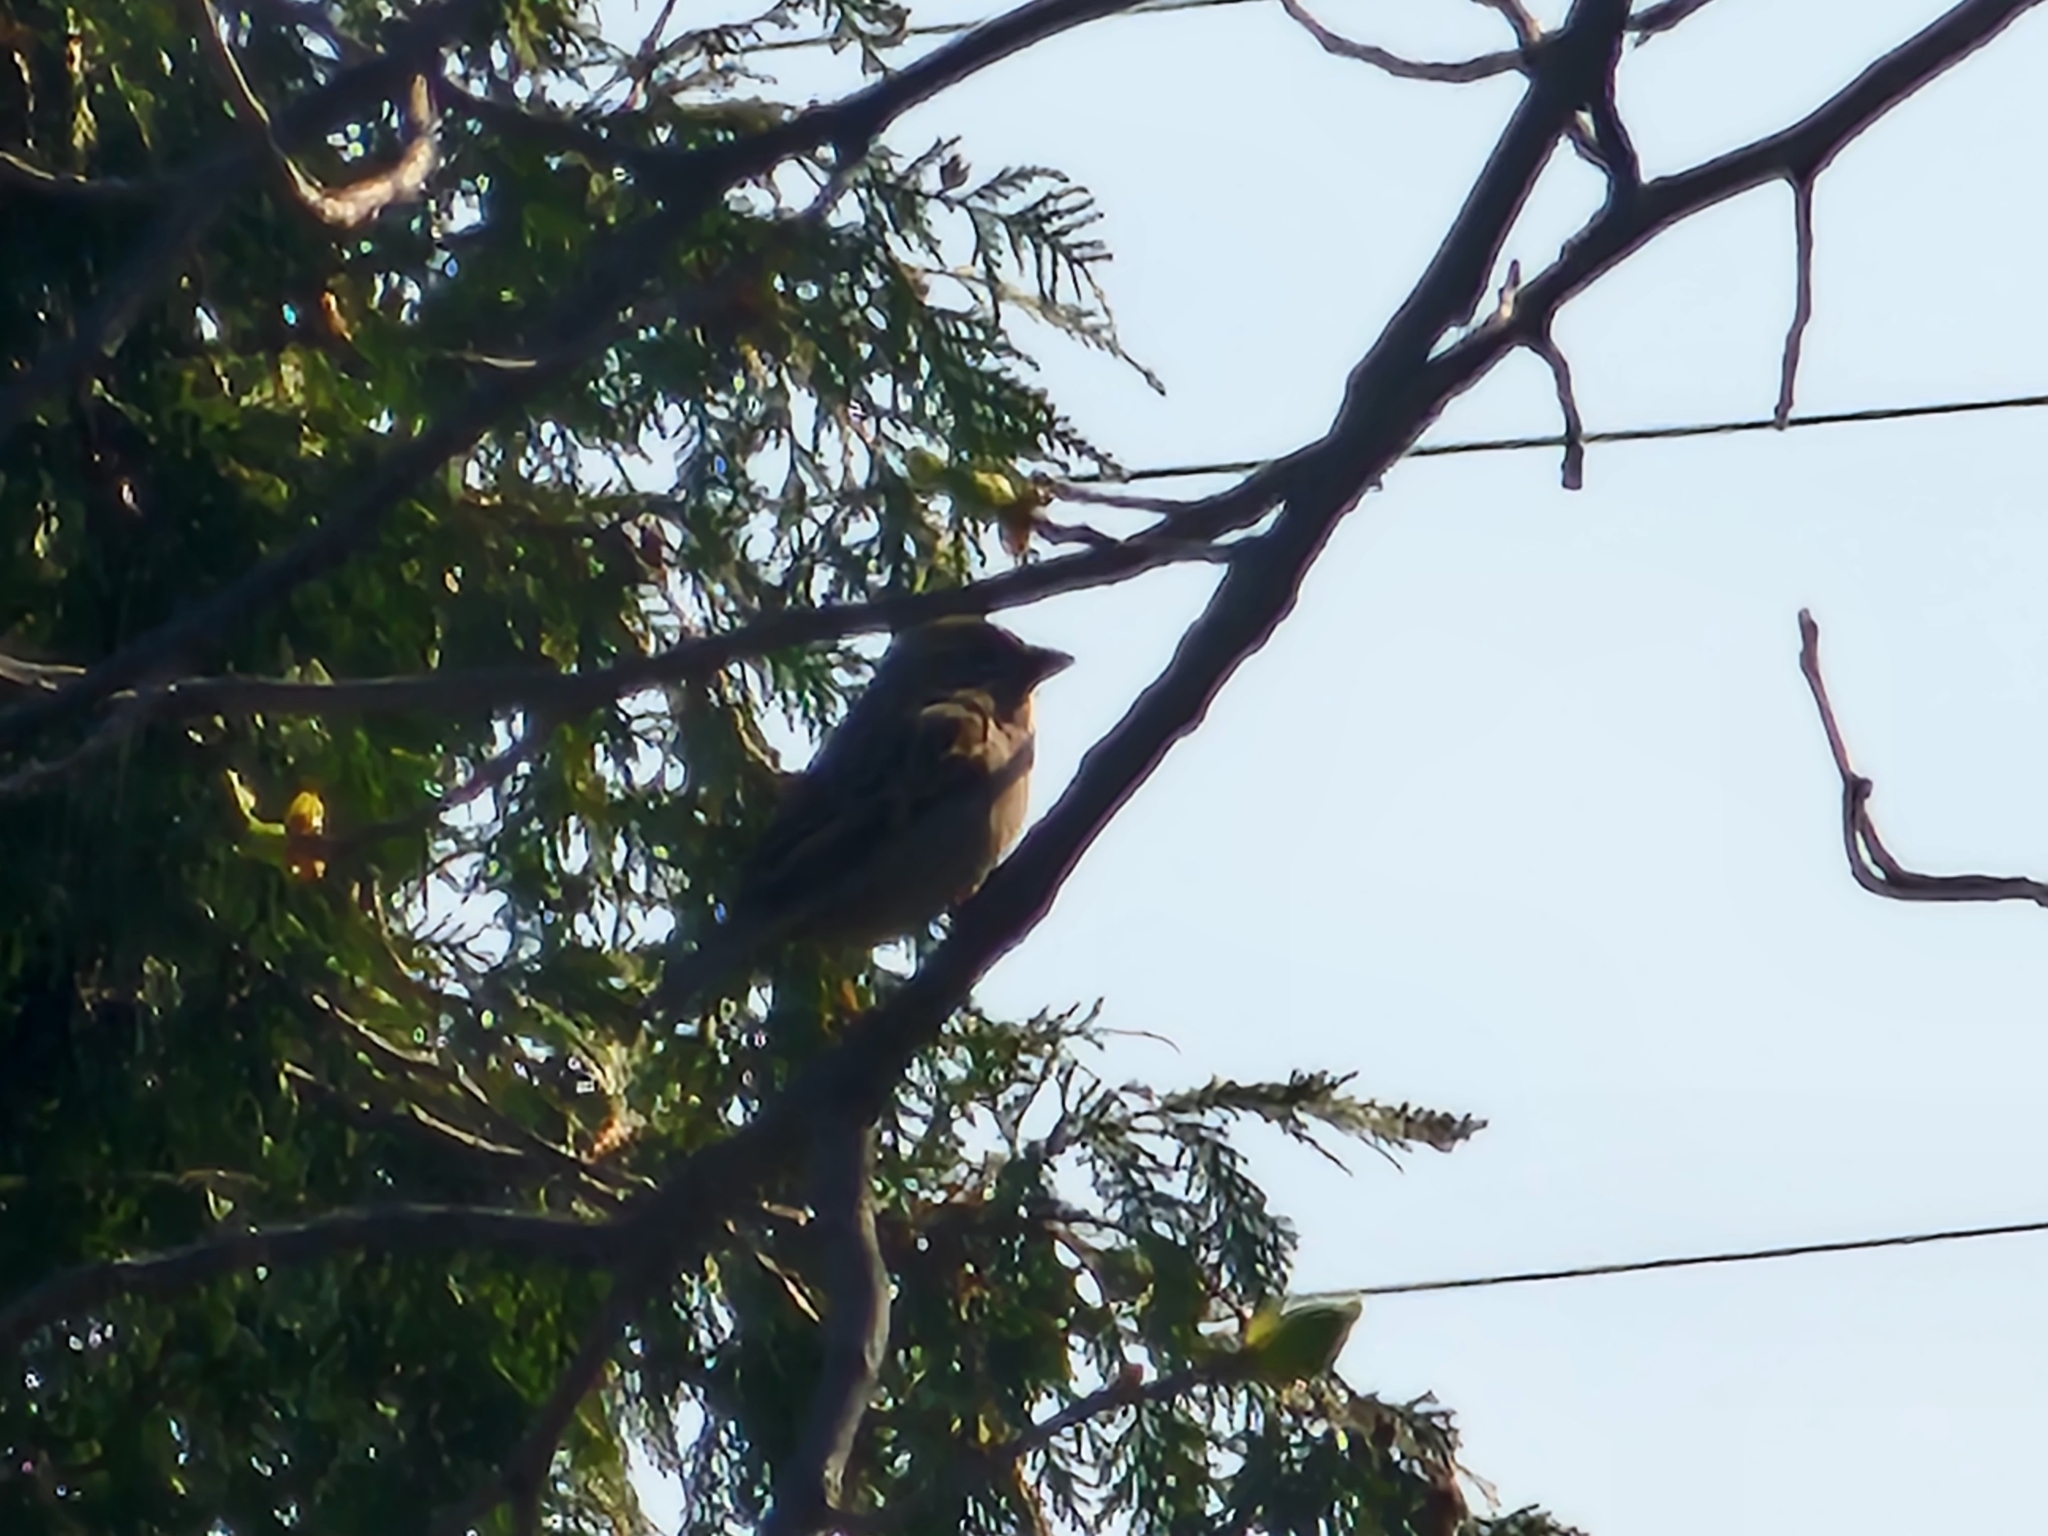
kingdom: Animalia
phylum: Chordata
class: Aves
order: Passeriformes
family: Passeridae
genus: Passer
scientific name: Passer domesticus
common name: House sparrow
